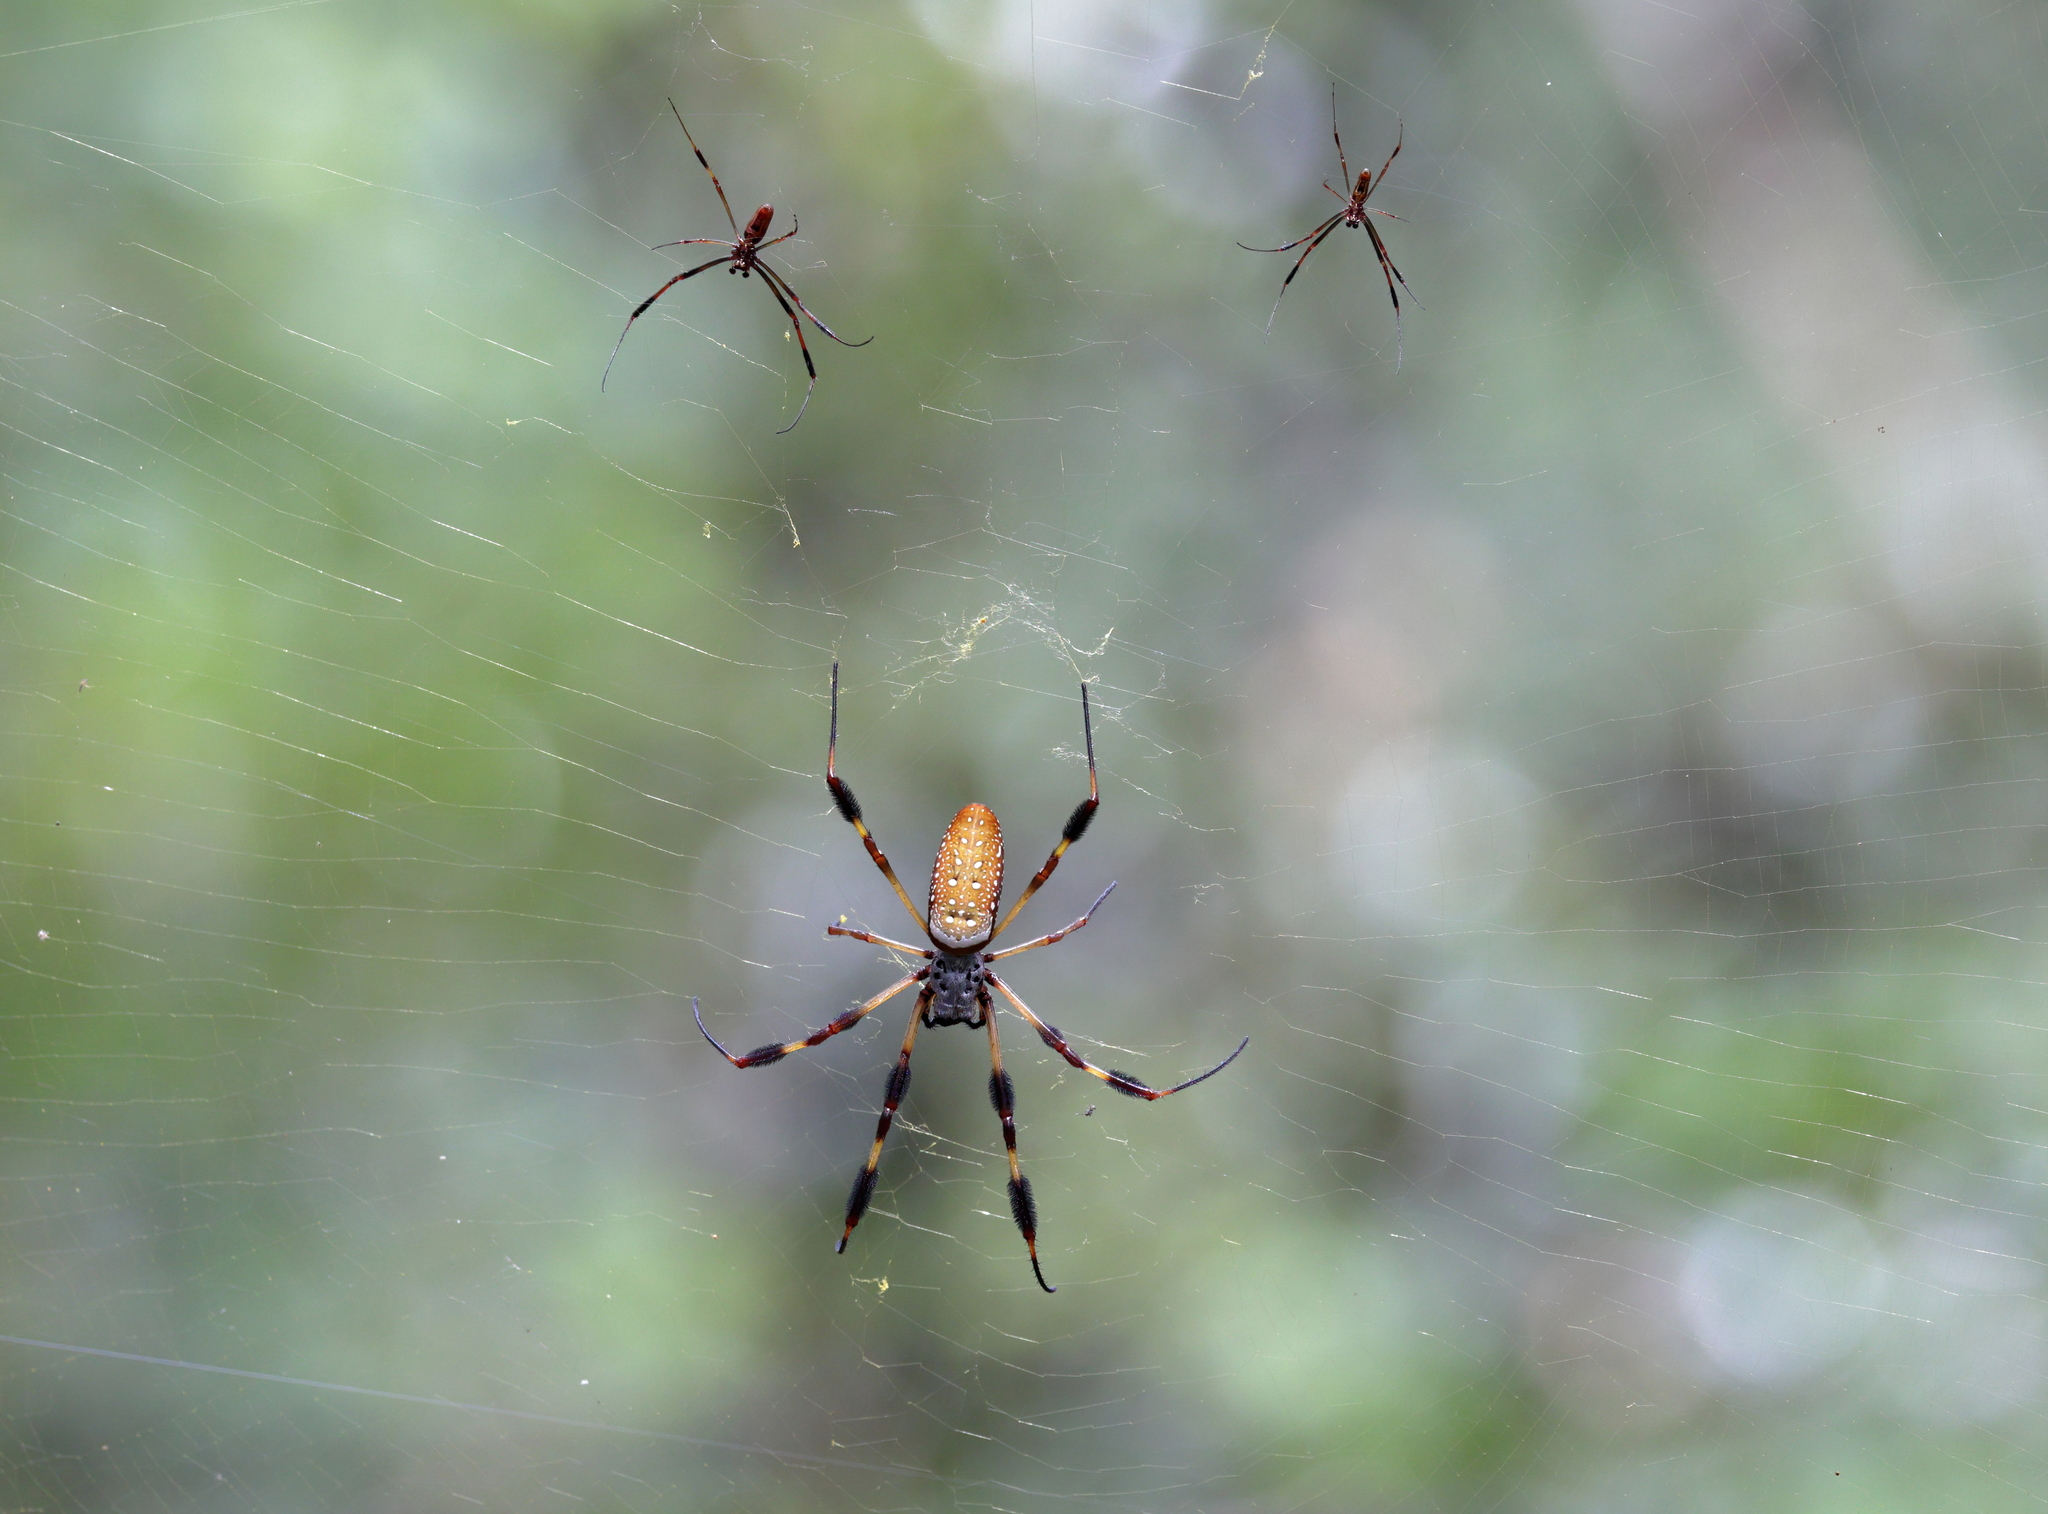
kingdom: Animalia
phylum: Arthropoda
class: Arachnida
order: Araneae
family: Araneidae
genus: Trichonephila
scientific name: Trichonephila clavipes
